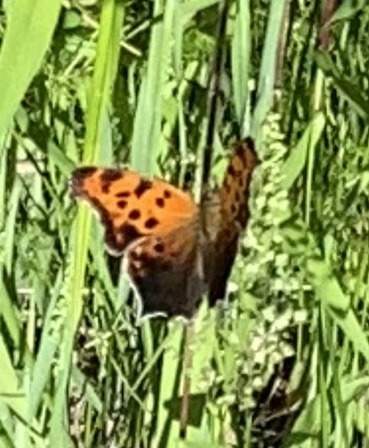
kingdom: Animalia
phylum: Arthropoda
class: Insecta
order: Lepidoptera
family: Nymphalidae
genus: Polygonia
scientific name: Polygonia interrogationis
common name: Question mark
